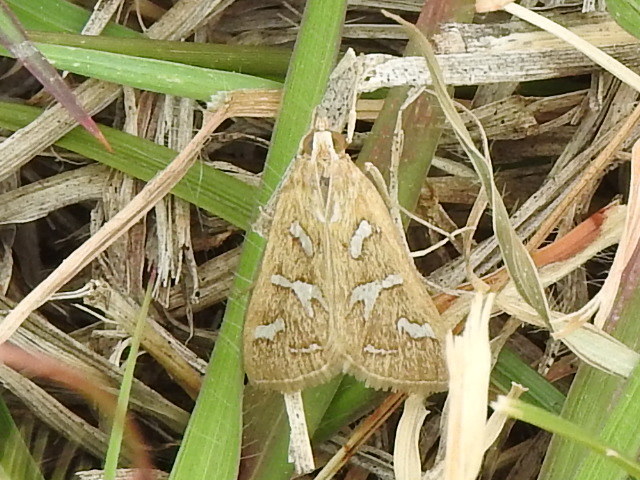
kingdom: Animalia
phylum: Arthropoda
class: Insecta
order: Lepidoptera
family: Crambidae
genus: Diastictis
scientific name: Diastictis fracturalis
